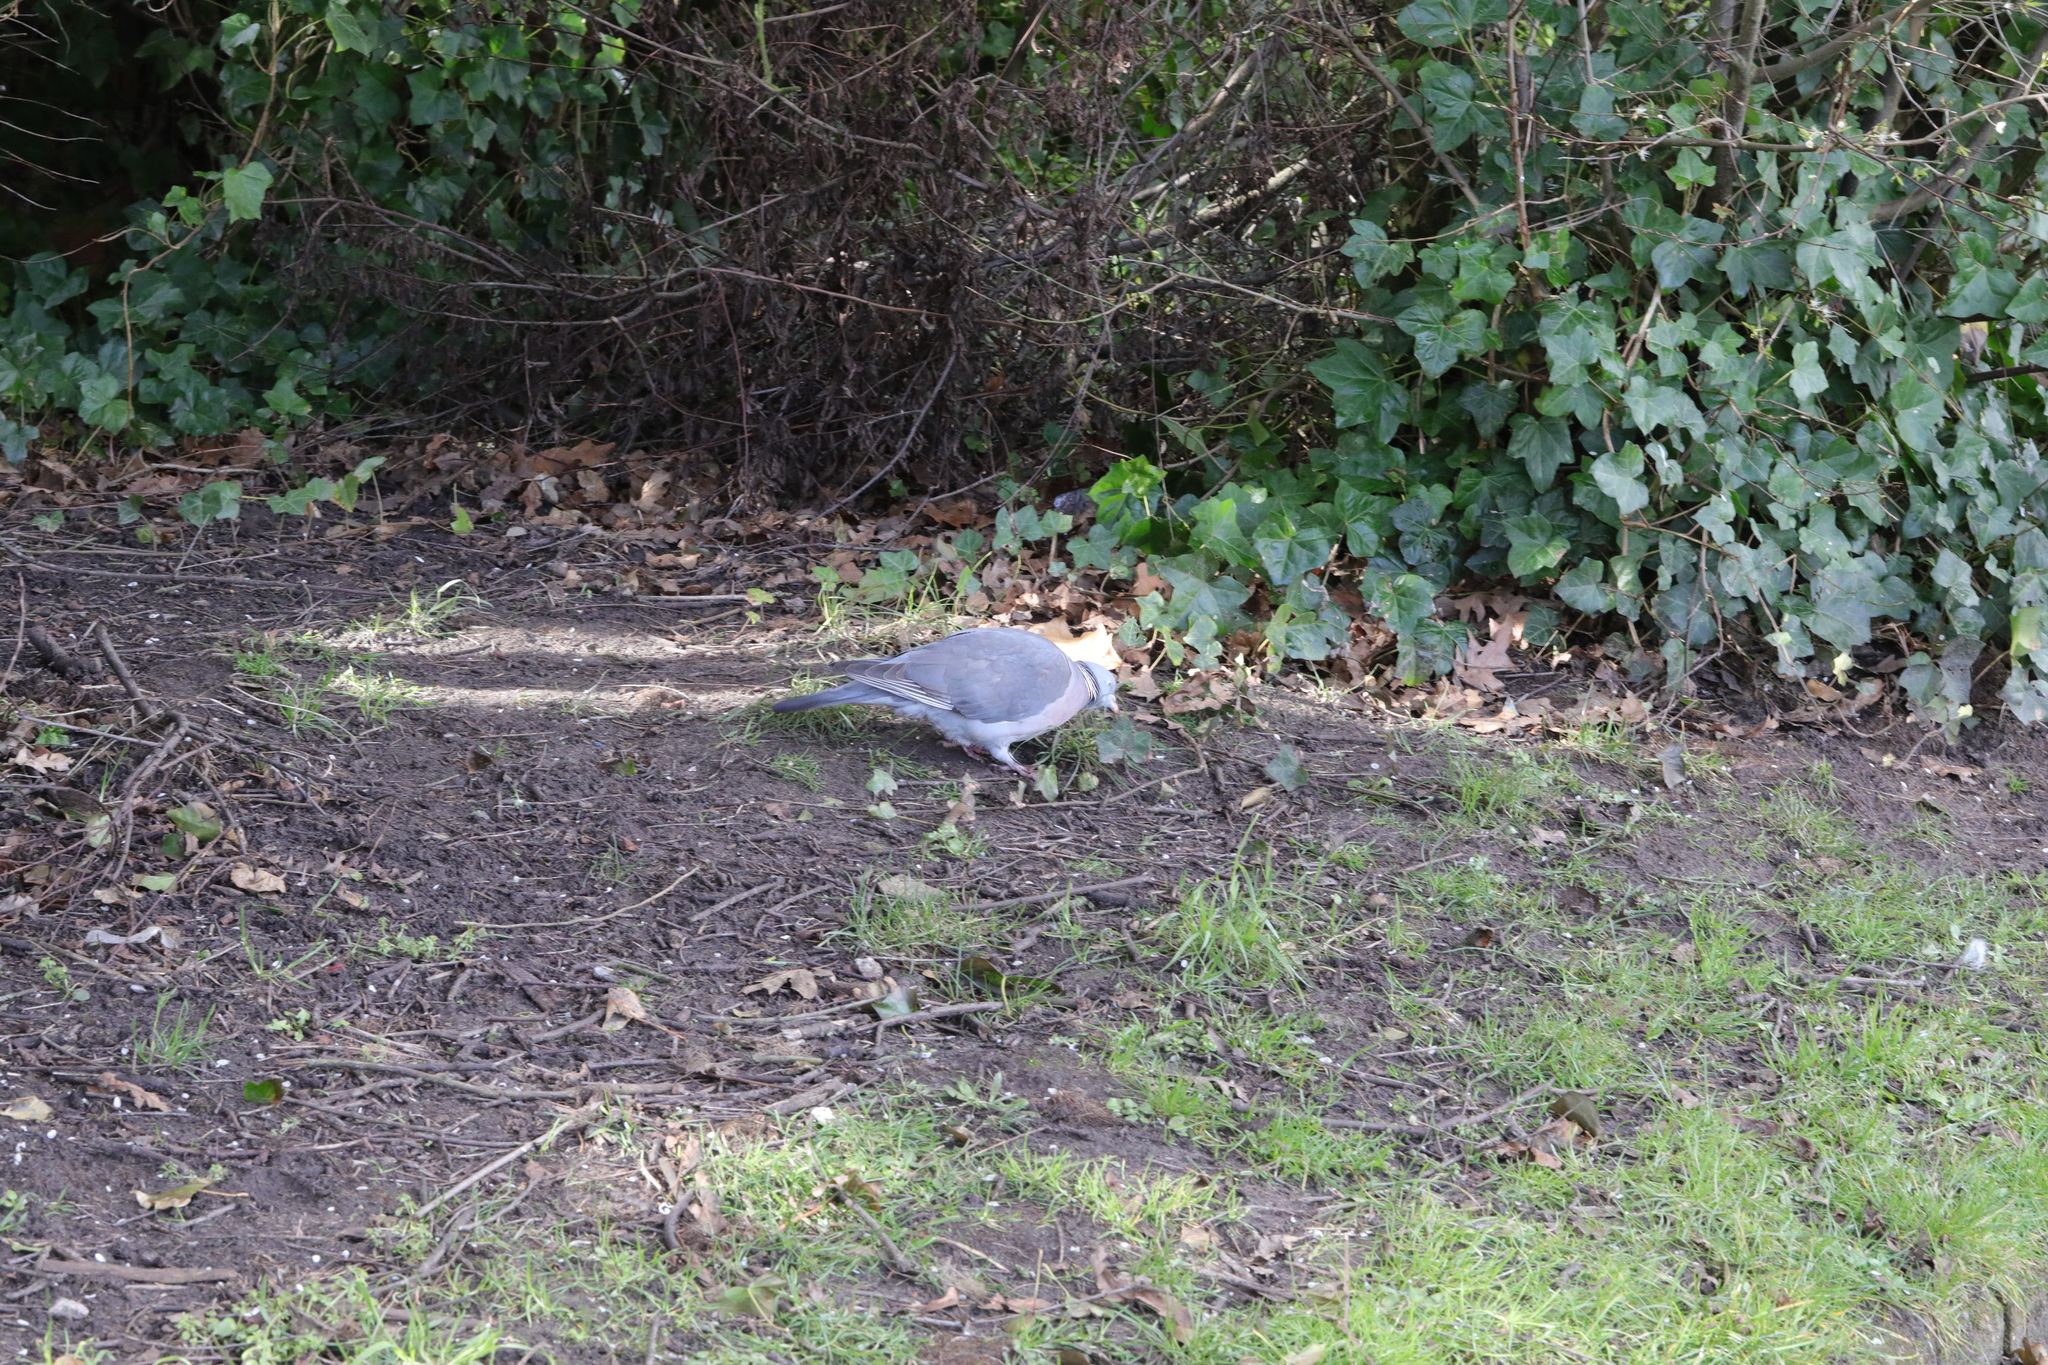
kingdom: Animalia
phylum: Chordata
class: Aves
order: Columbiformes
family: Columbidae
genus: Columba
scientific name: Columba palumbus
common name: Common wood pigeon
